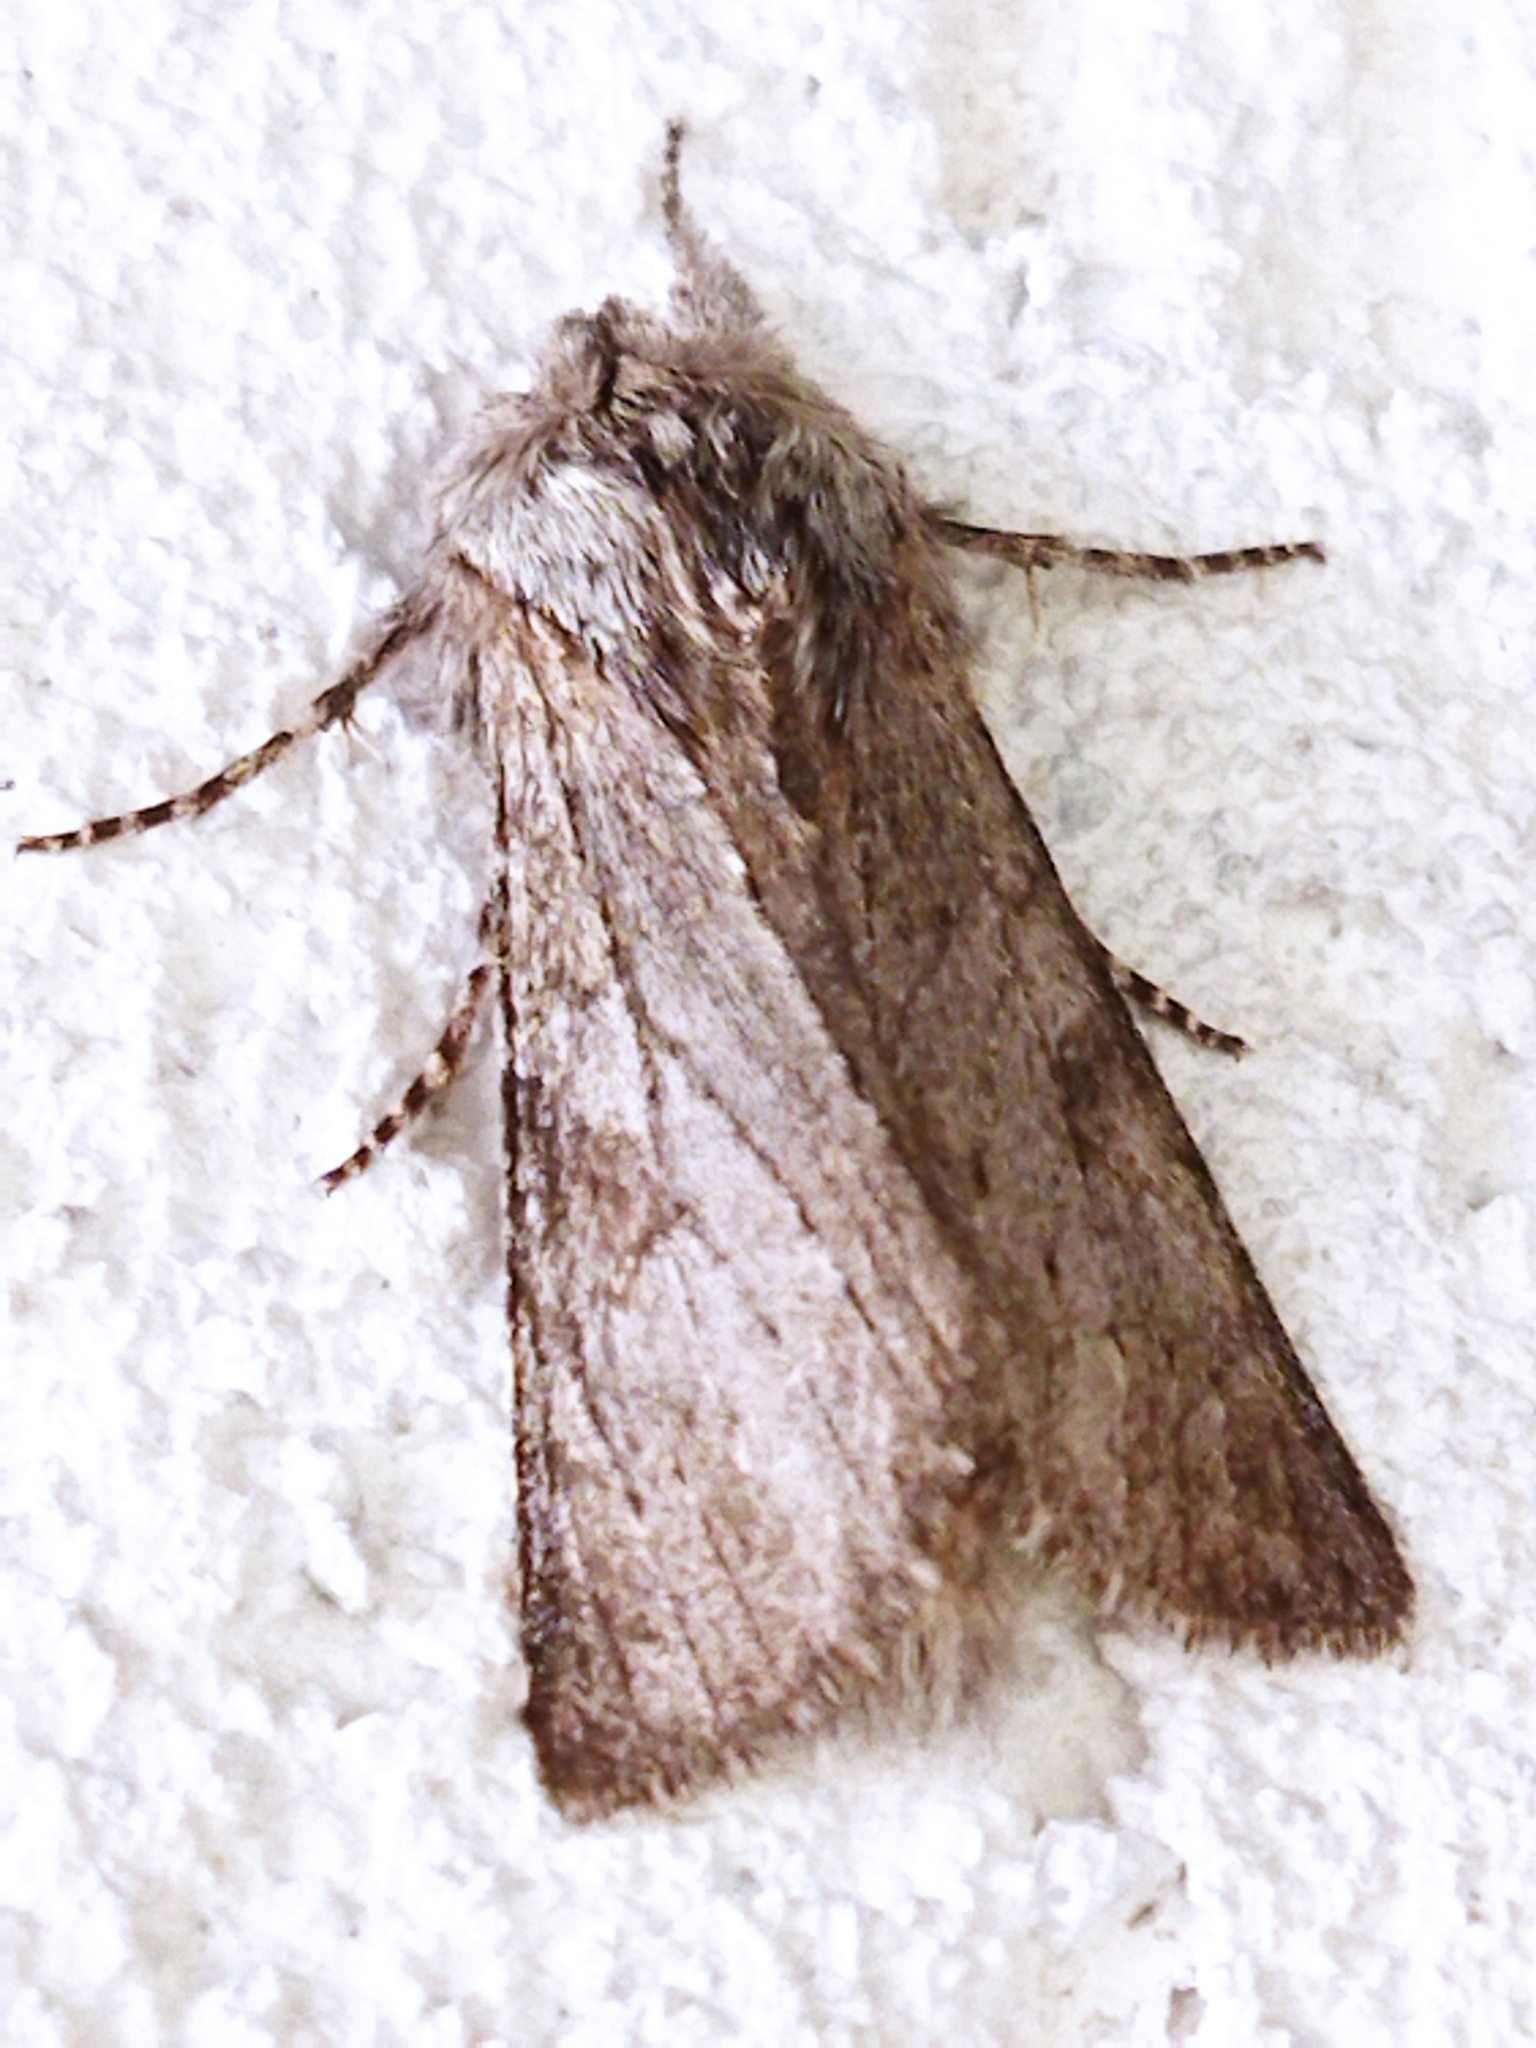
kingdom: Animalia
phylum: Arthropoda
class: Insecta
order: Lepidoptera
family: Notodontidae
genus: Dicranura
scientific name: Dicranura ulmi
